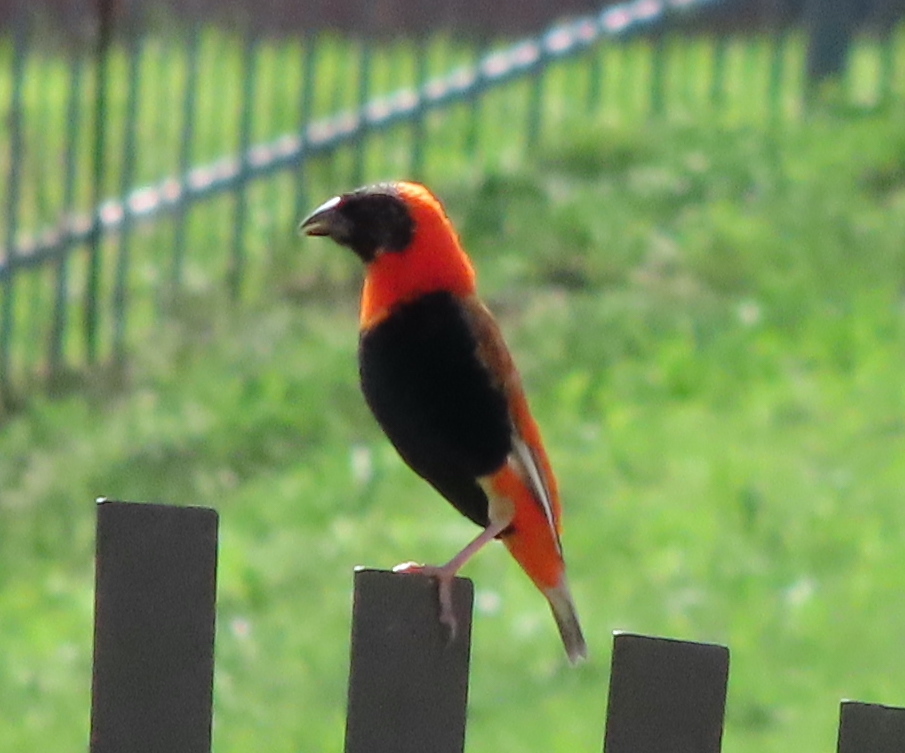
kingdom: Animalia
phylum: Chordata
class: Aves
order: Passeriformes
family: Ploceidae
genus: Euplectes
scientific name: Euplectes orix
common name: Southern red bishop
